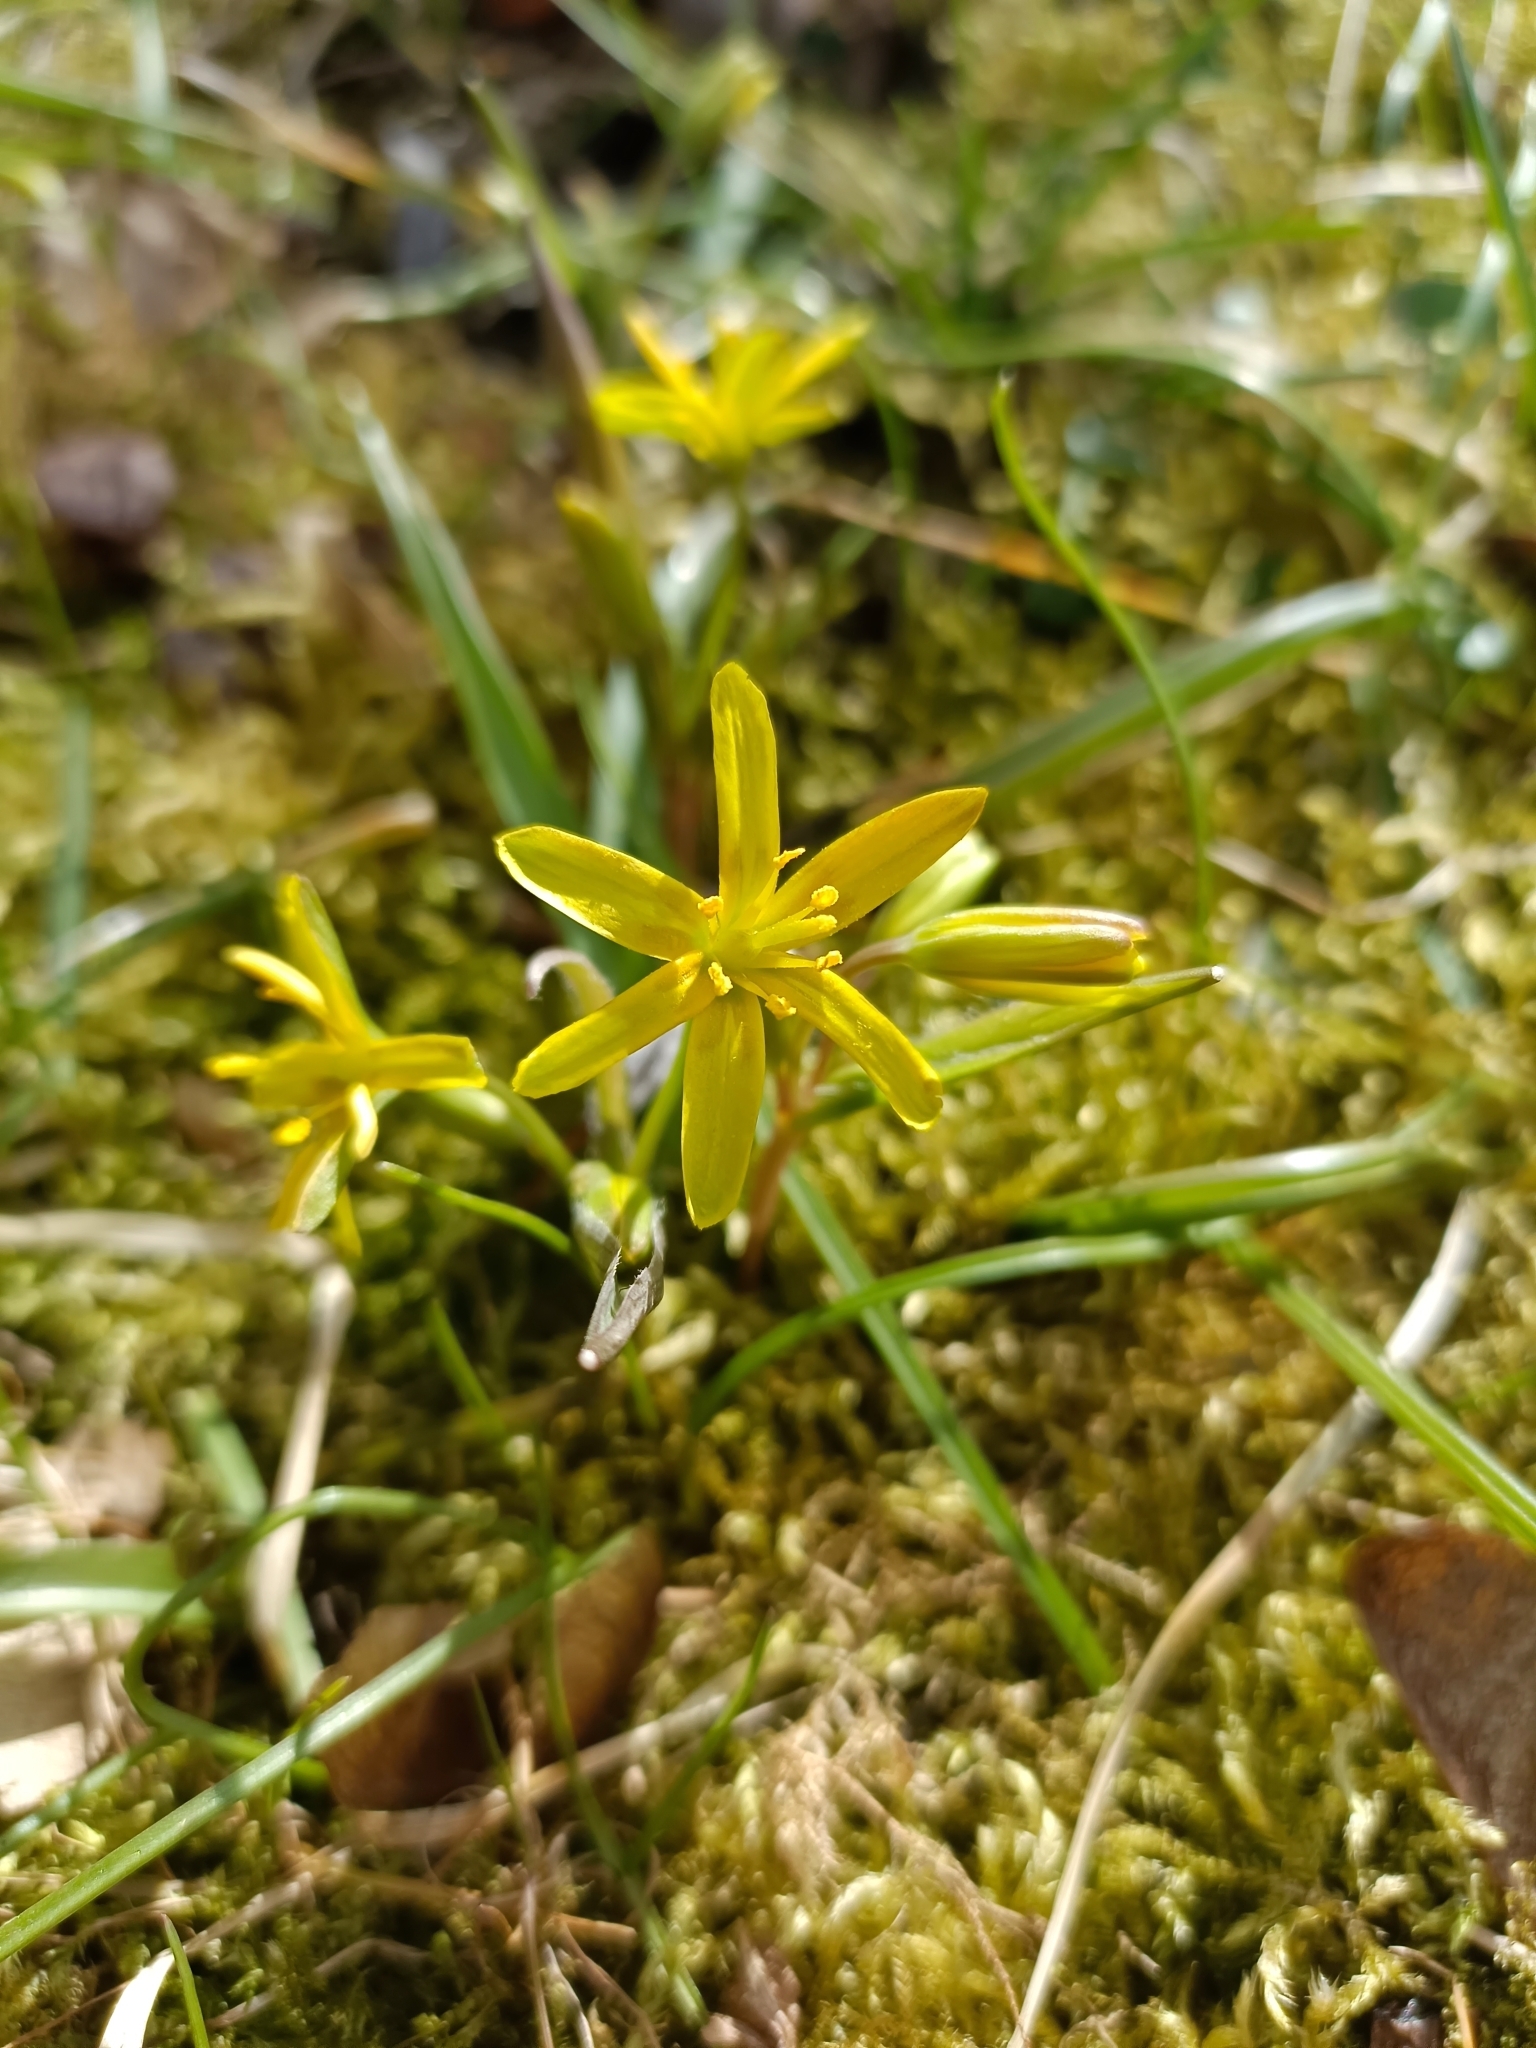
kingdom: Plantae
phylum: Tracheophyta
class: Liliopsida
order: Liliales
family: Liliaceae
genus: Gagea
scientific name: Gagea lutea
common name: Yellow star-of-bethlehem
